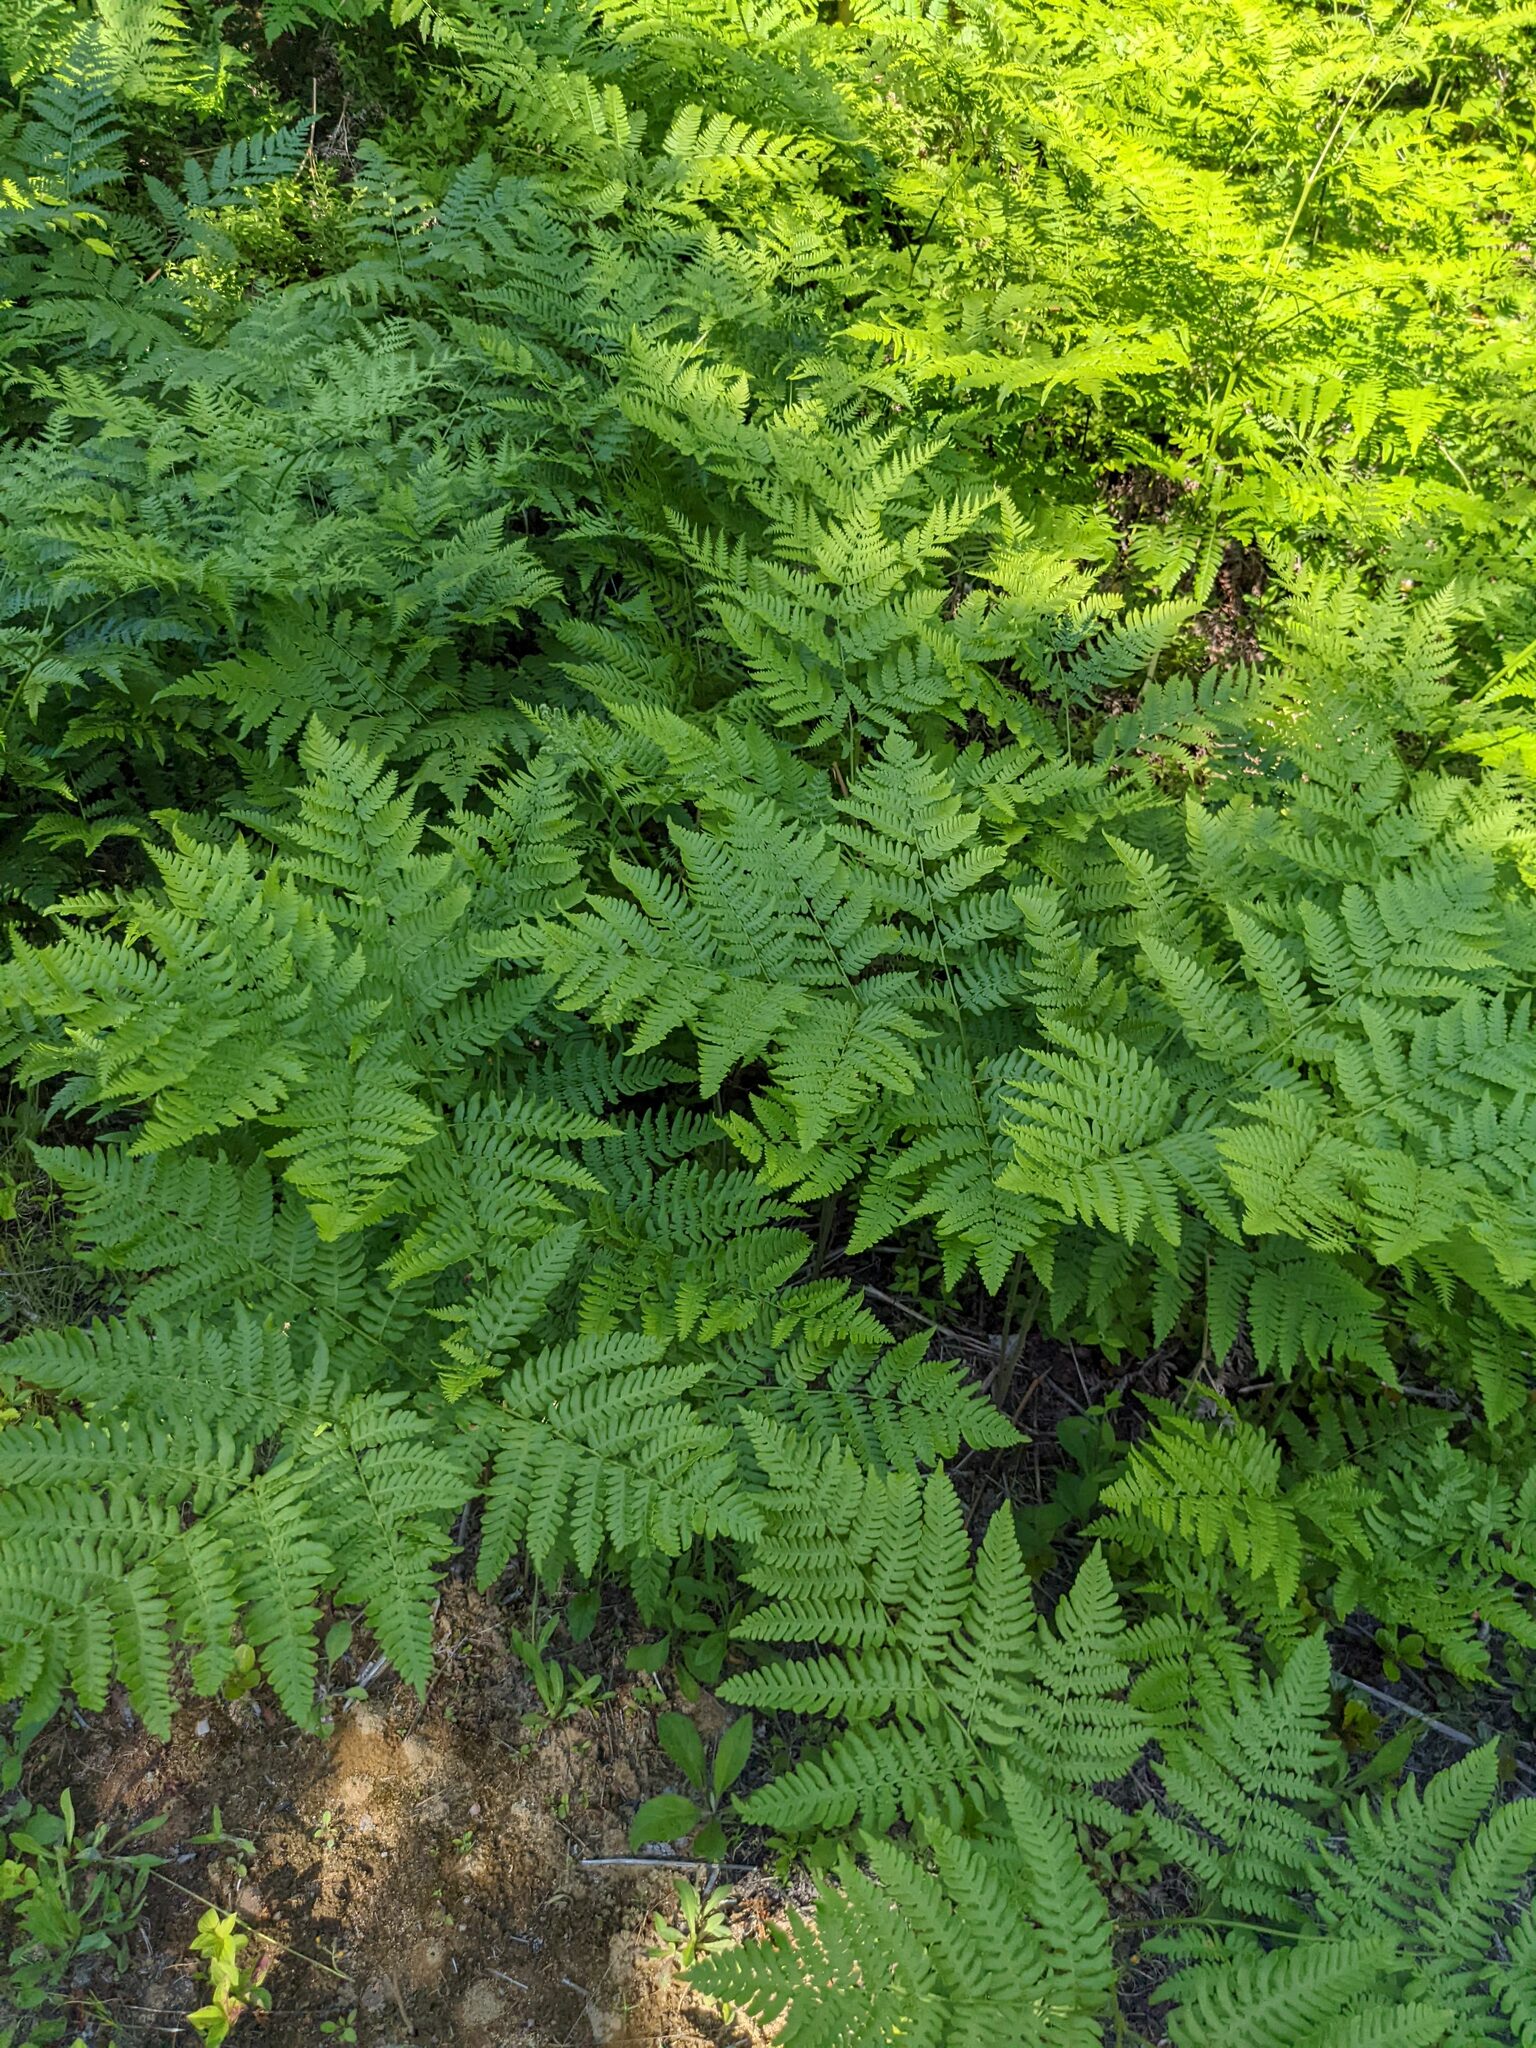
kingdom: Plantae
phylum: Tracheophyta
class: Polypodiopsida
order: Polypodiales
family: Dennstaedtiaceae
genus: Pteridium
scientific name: Pteridium aquilinum
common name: Bracken
